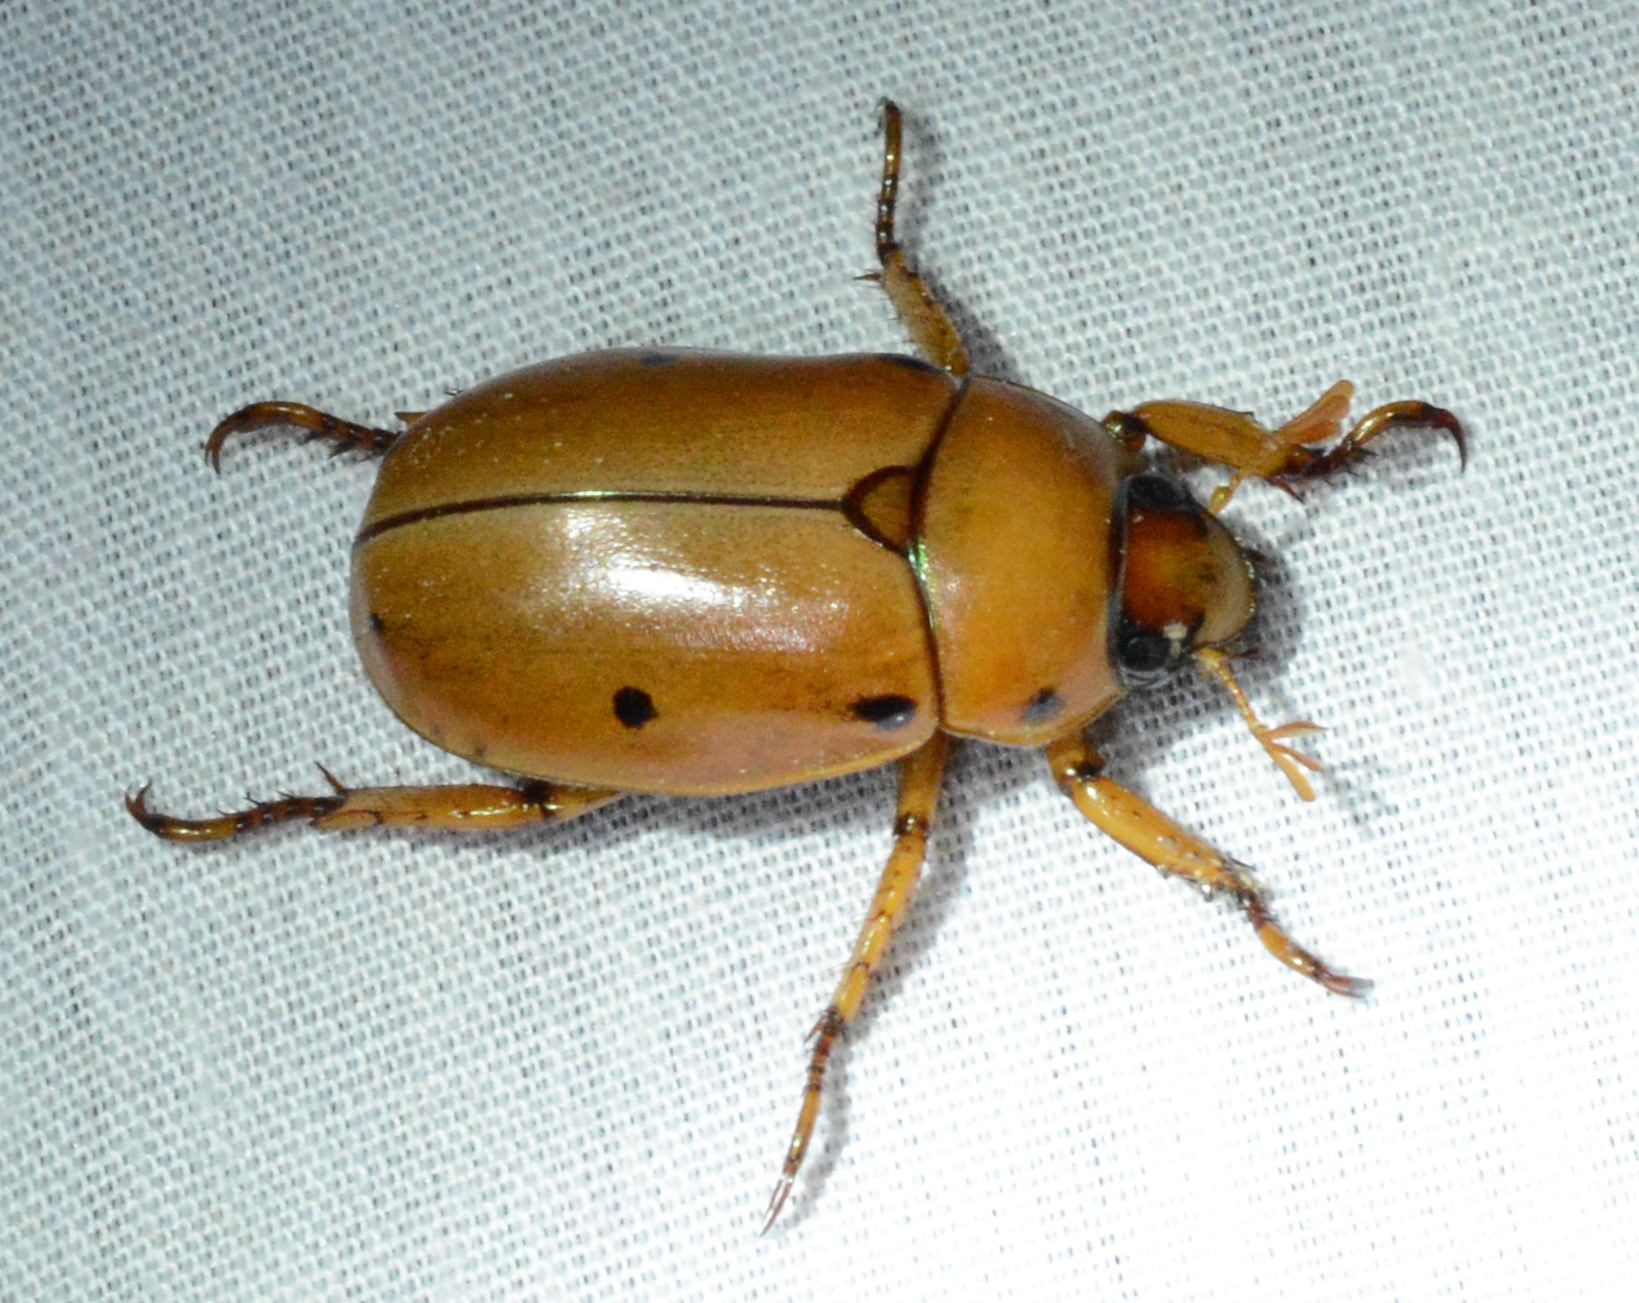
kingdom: Animalia
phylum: Arthropoda
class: Insecta
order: Coleoptera
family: Scarabaeidae
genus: Pelidnota
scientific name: Pelidnota punctata
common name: Grapevine beetle
